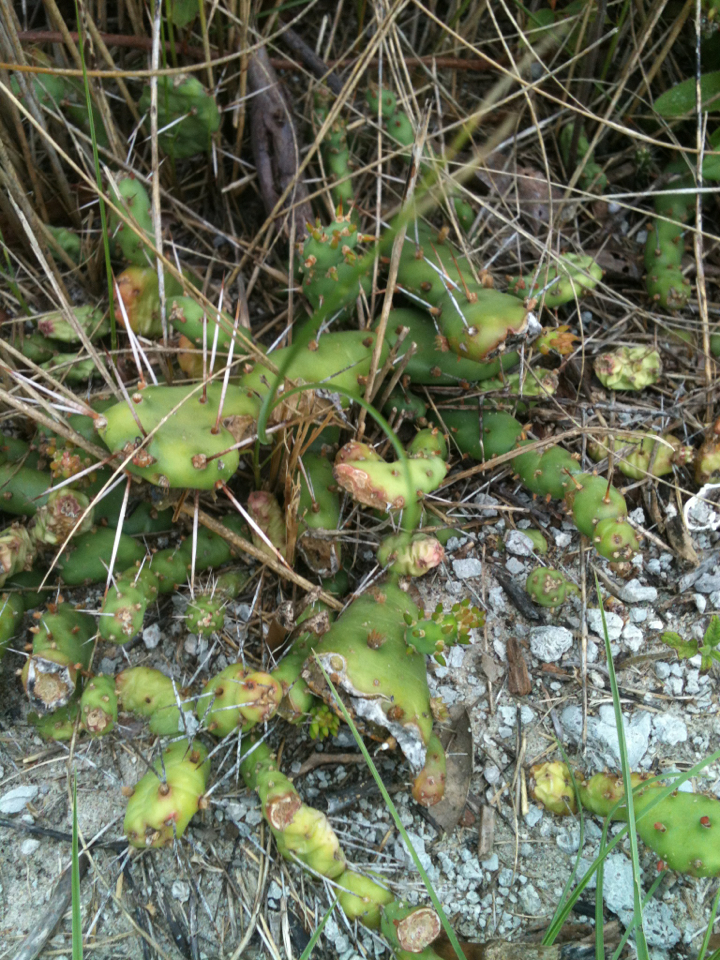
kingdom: Plantae
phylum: Tracheophyta
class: Magnoliopsida
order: Caryophyllales
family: Cactaceae
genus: Opuntia
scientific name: Opuntia drummondii
